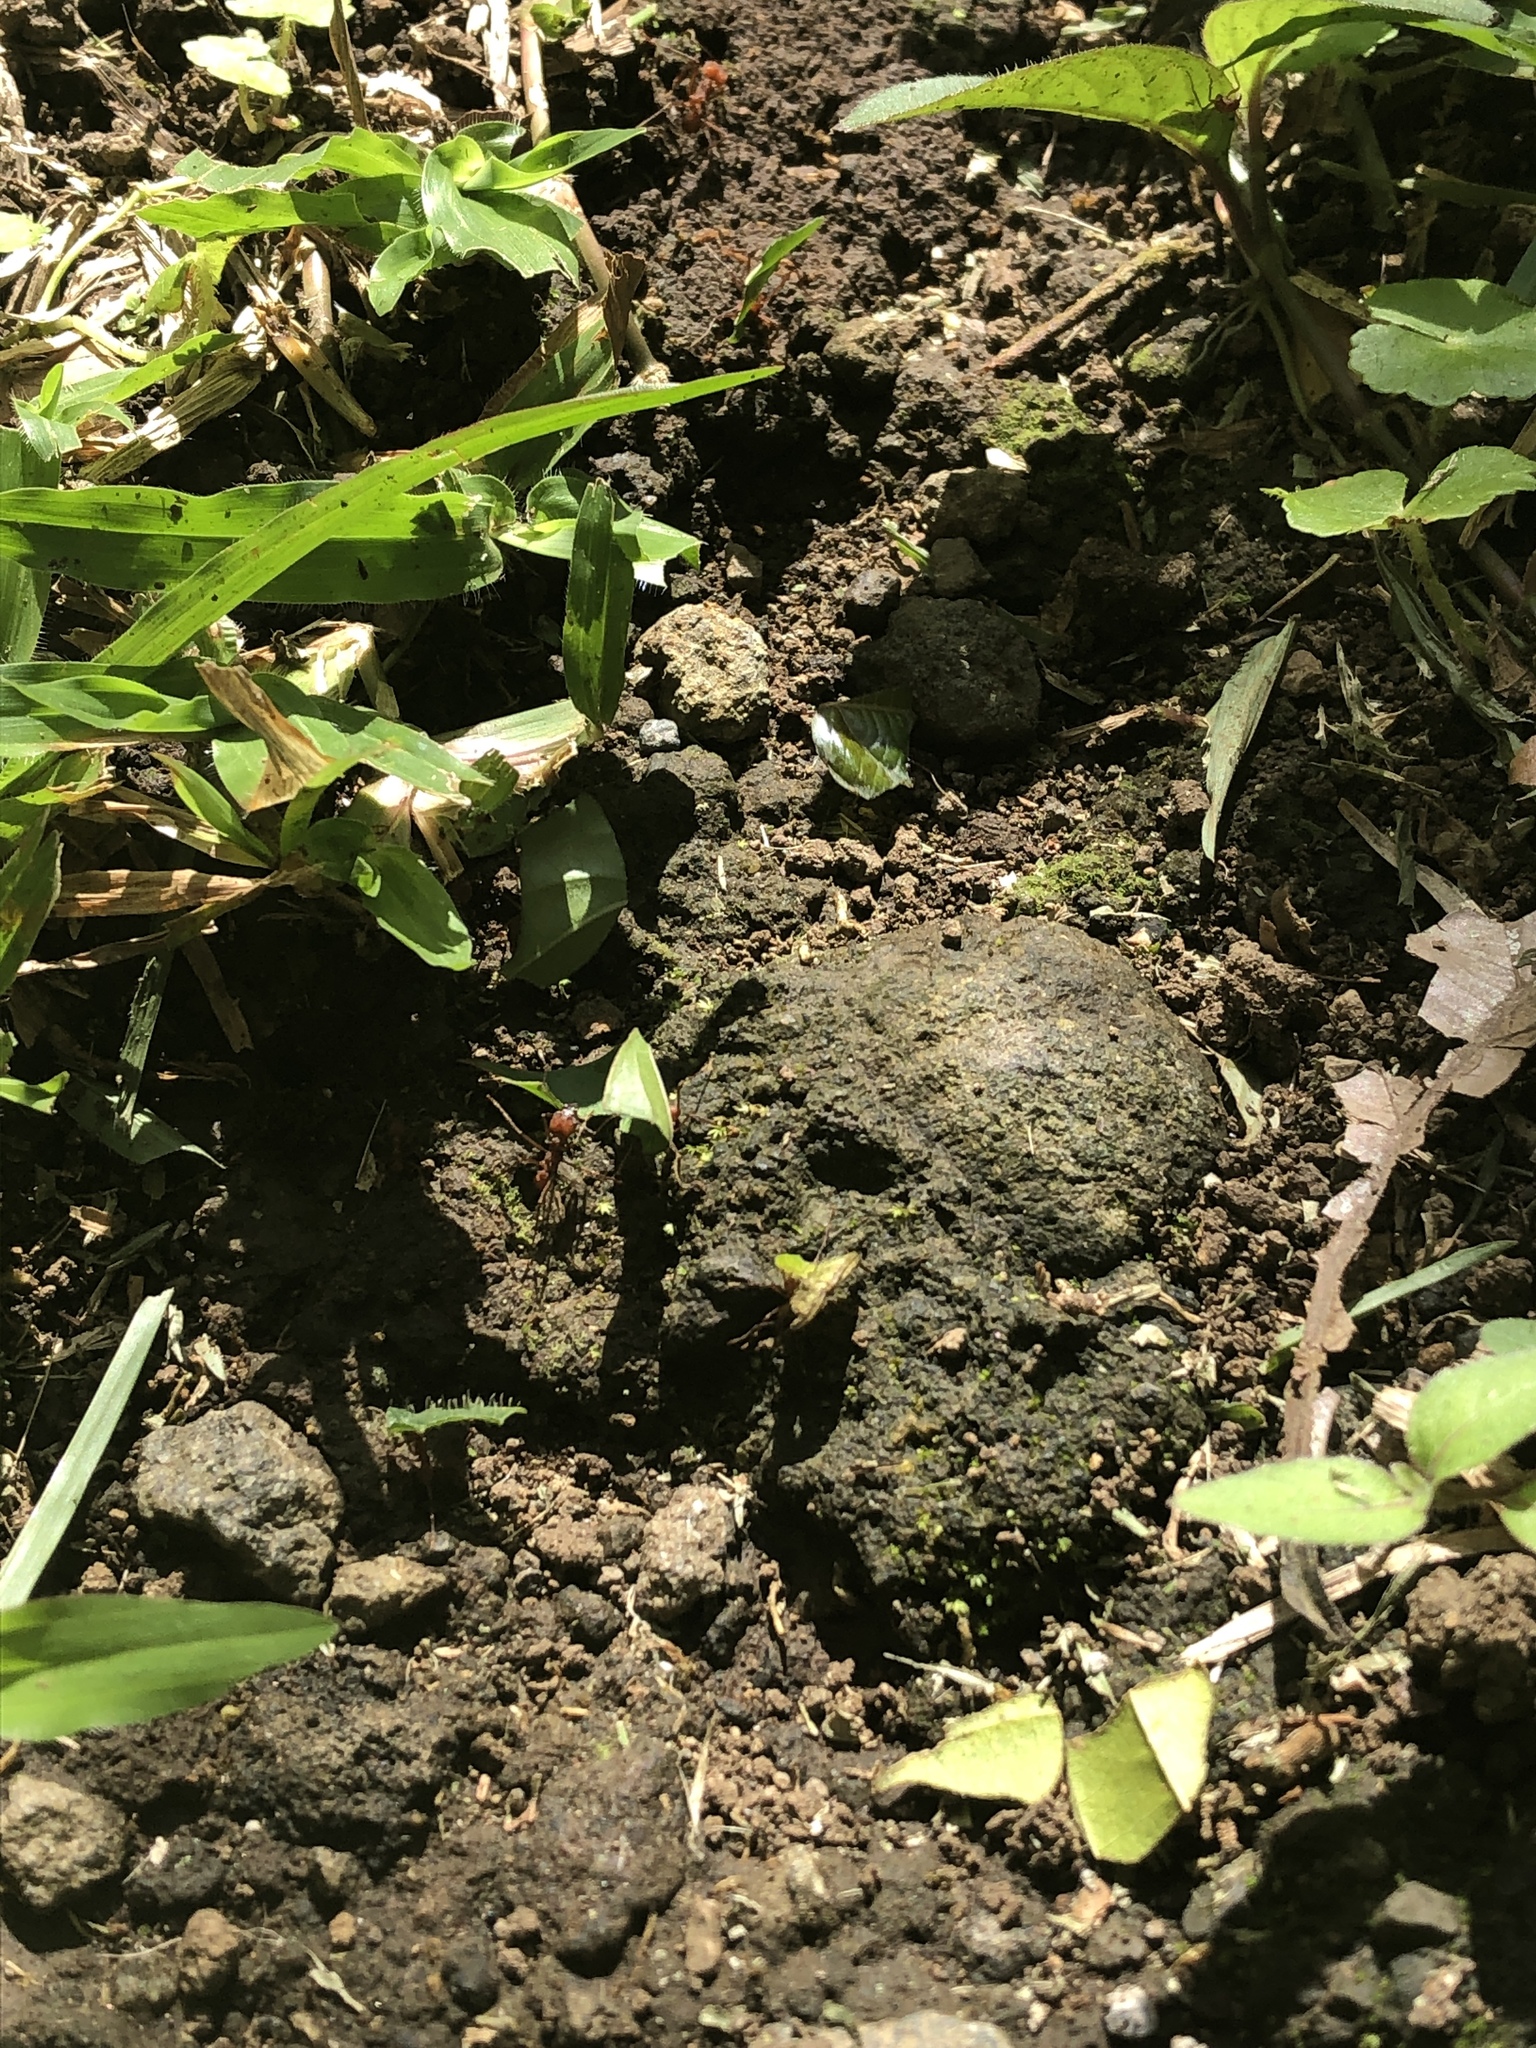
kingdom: Animalia
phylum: Arthropoda
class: Insecta
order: Hymenoptera
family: Formicidae
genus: Atta
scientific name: Atta cephalotes
